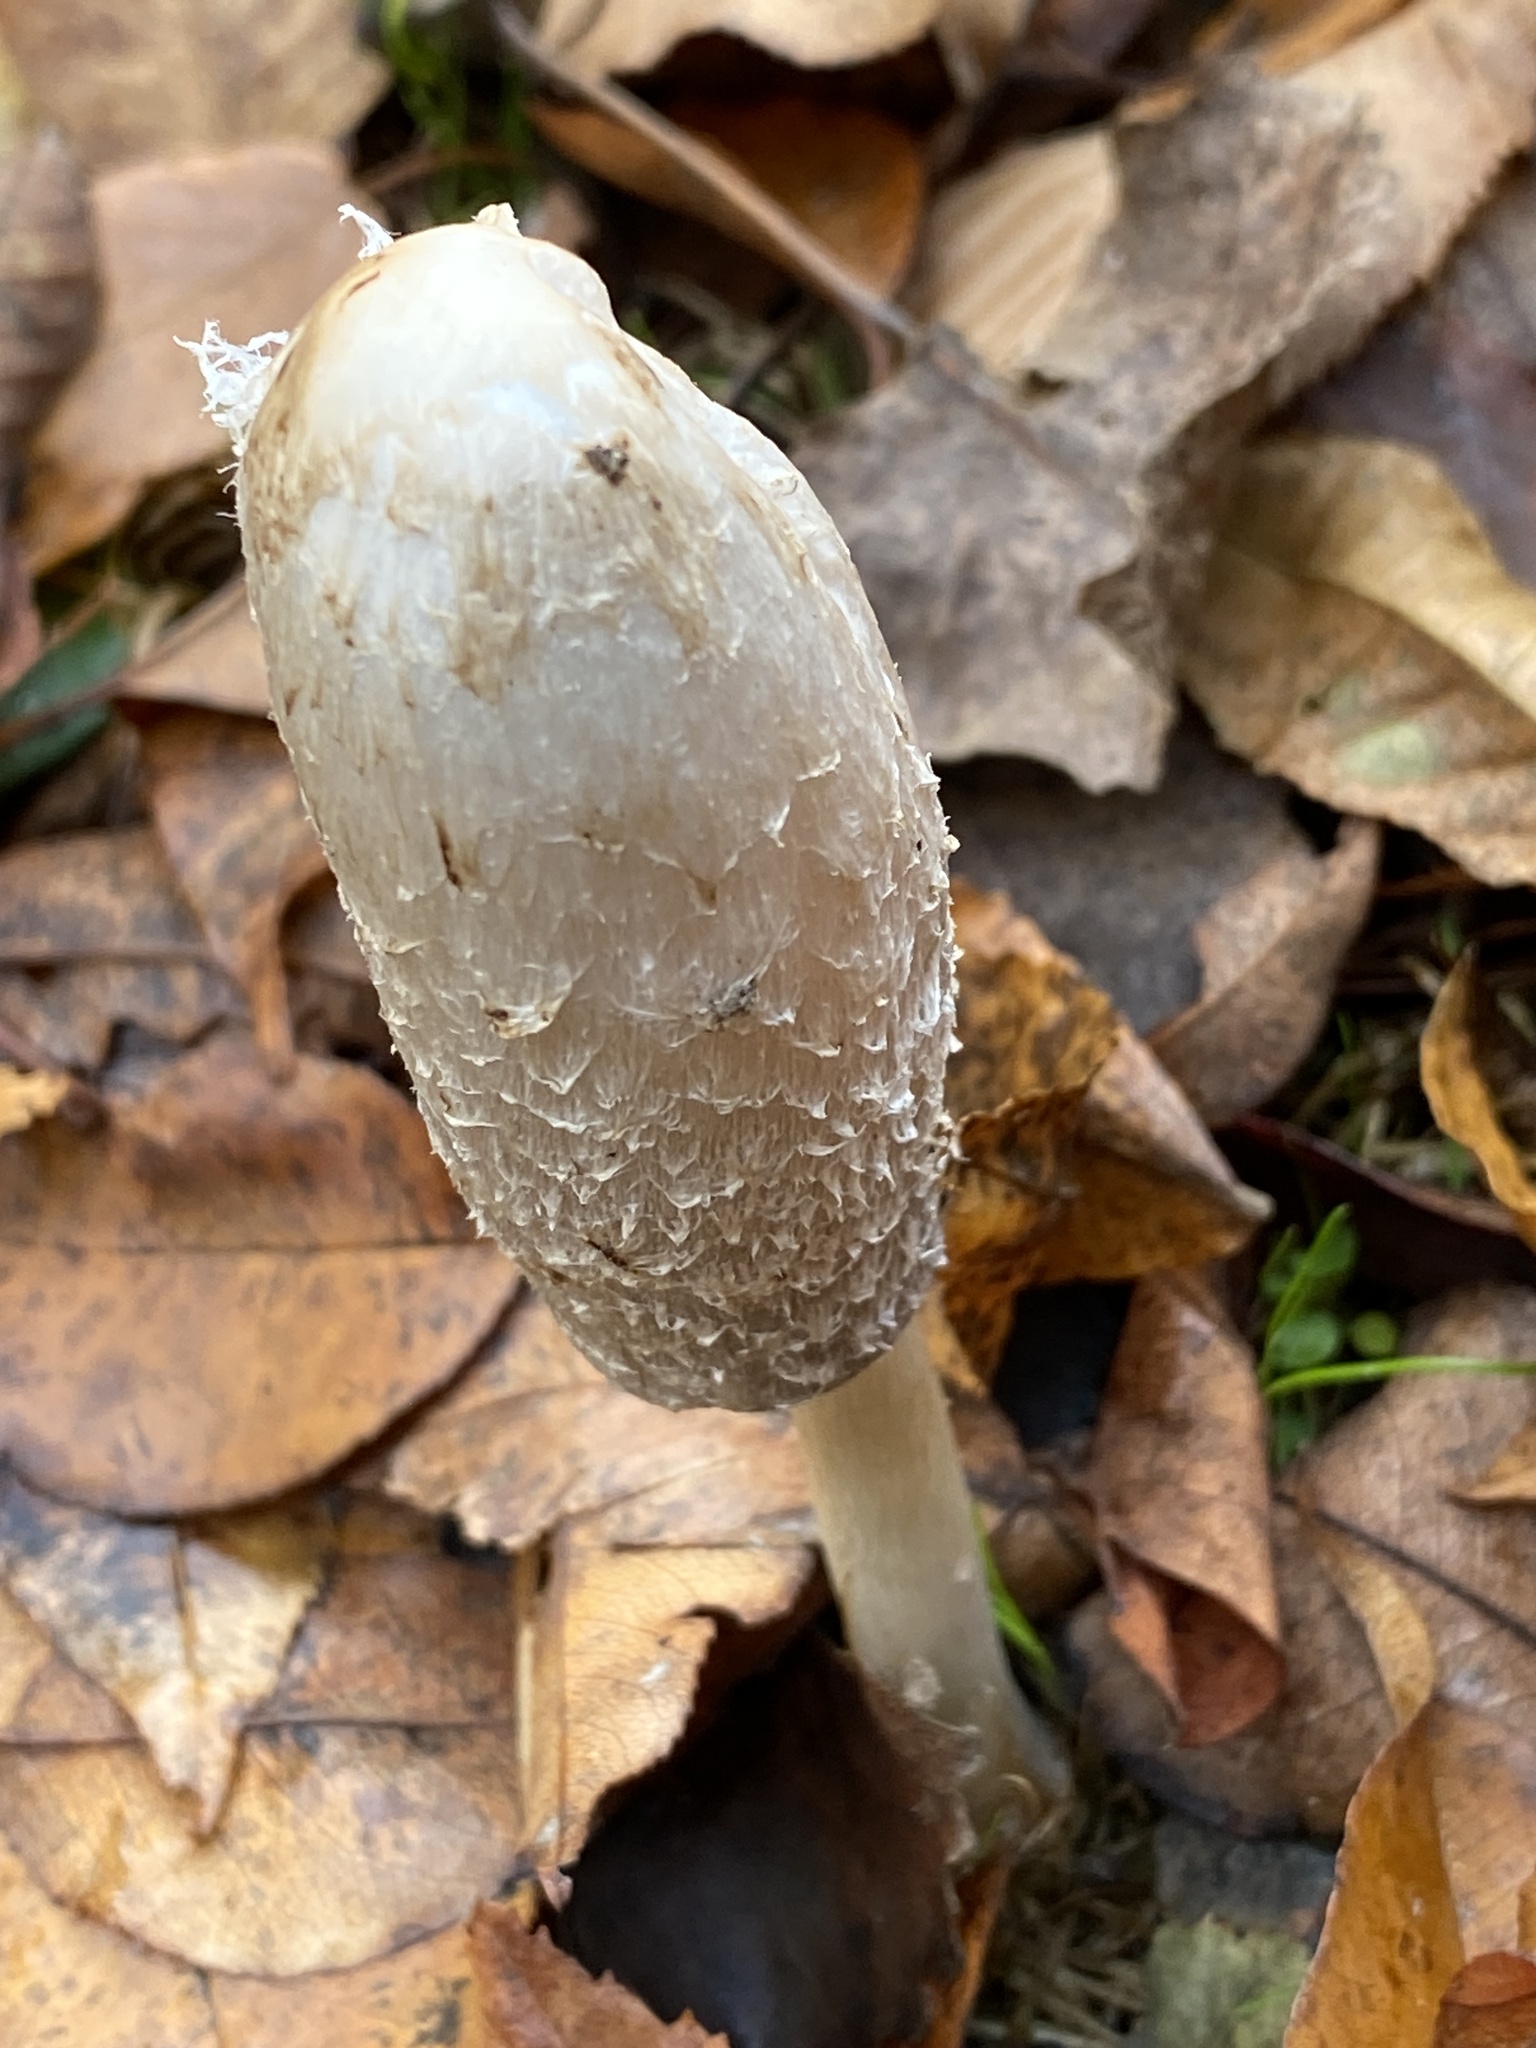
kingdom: Fungi
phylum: Basidiomycota
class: Agaricomycetes
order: Agaricales
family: Agaricaceae
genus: Coprinus
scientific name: Coprinus comatus
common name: Lawyer's wig
